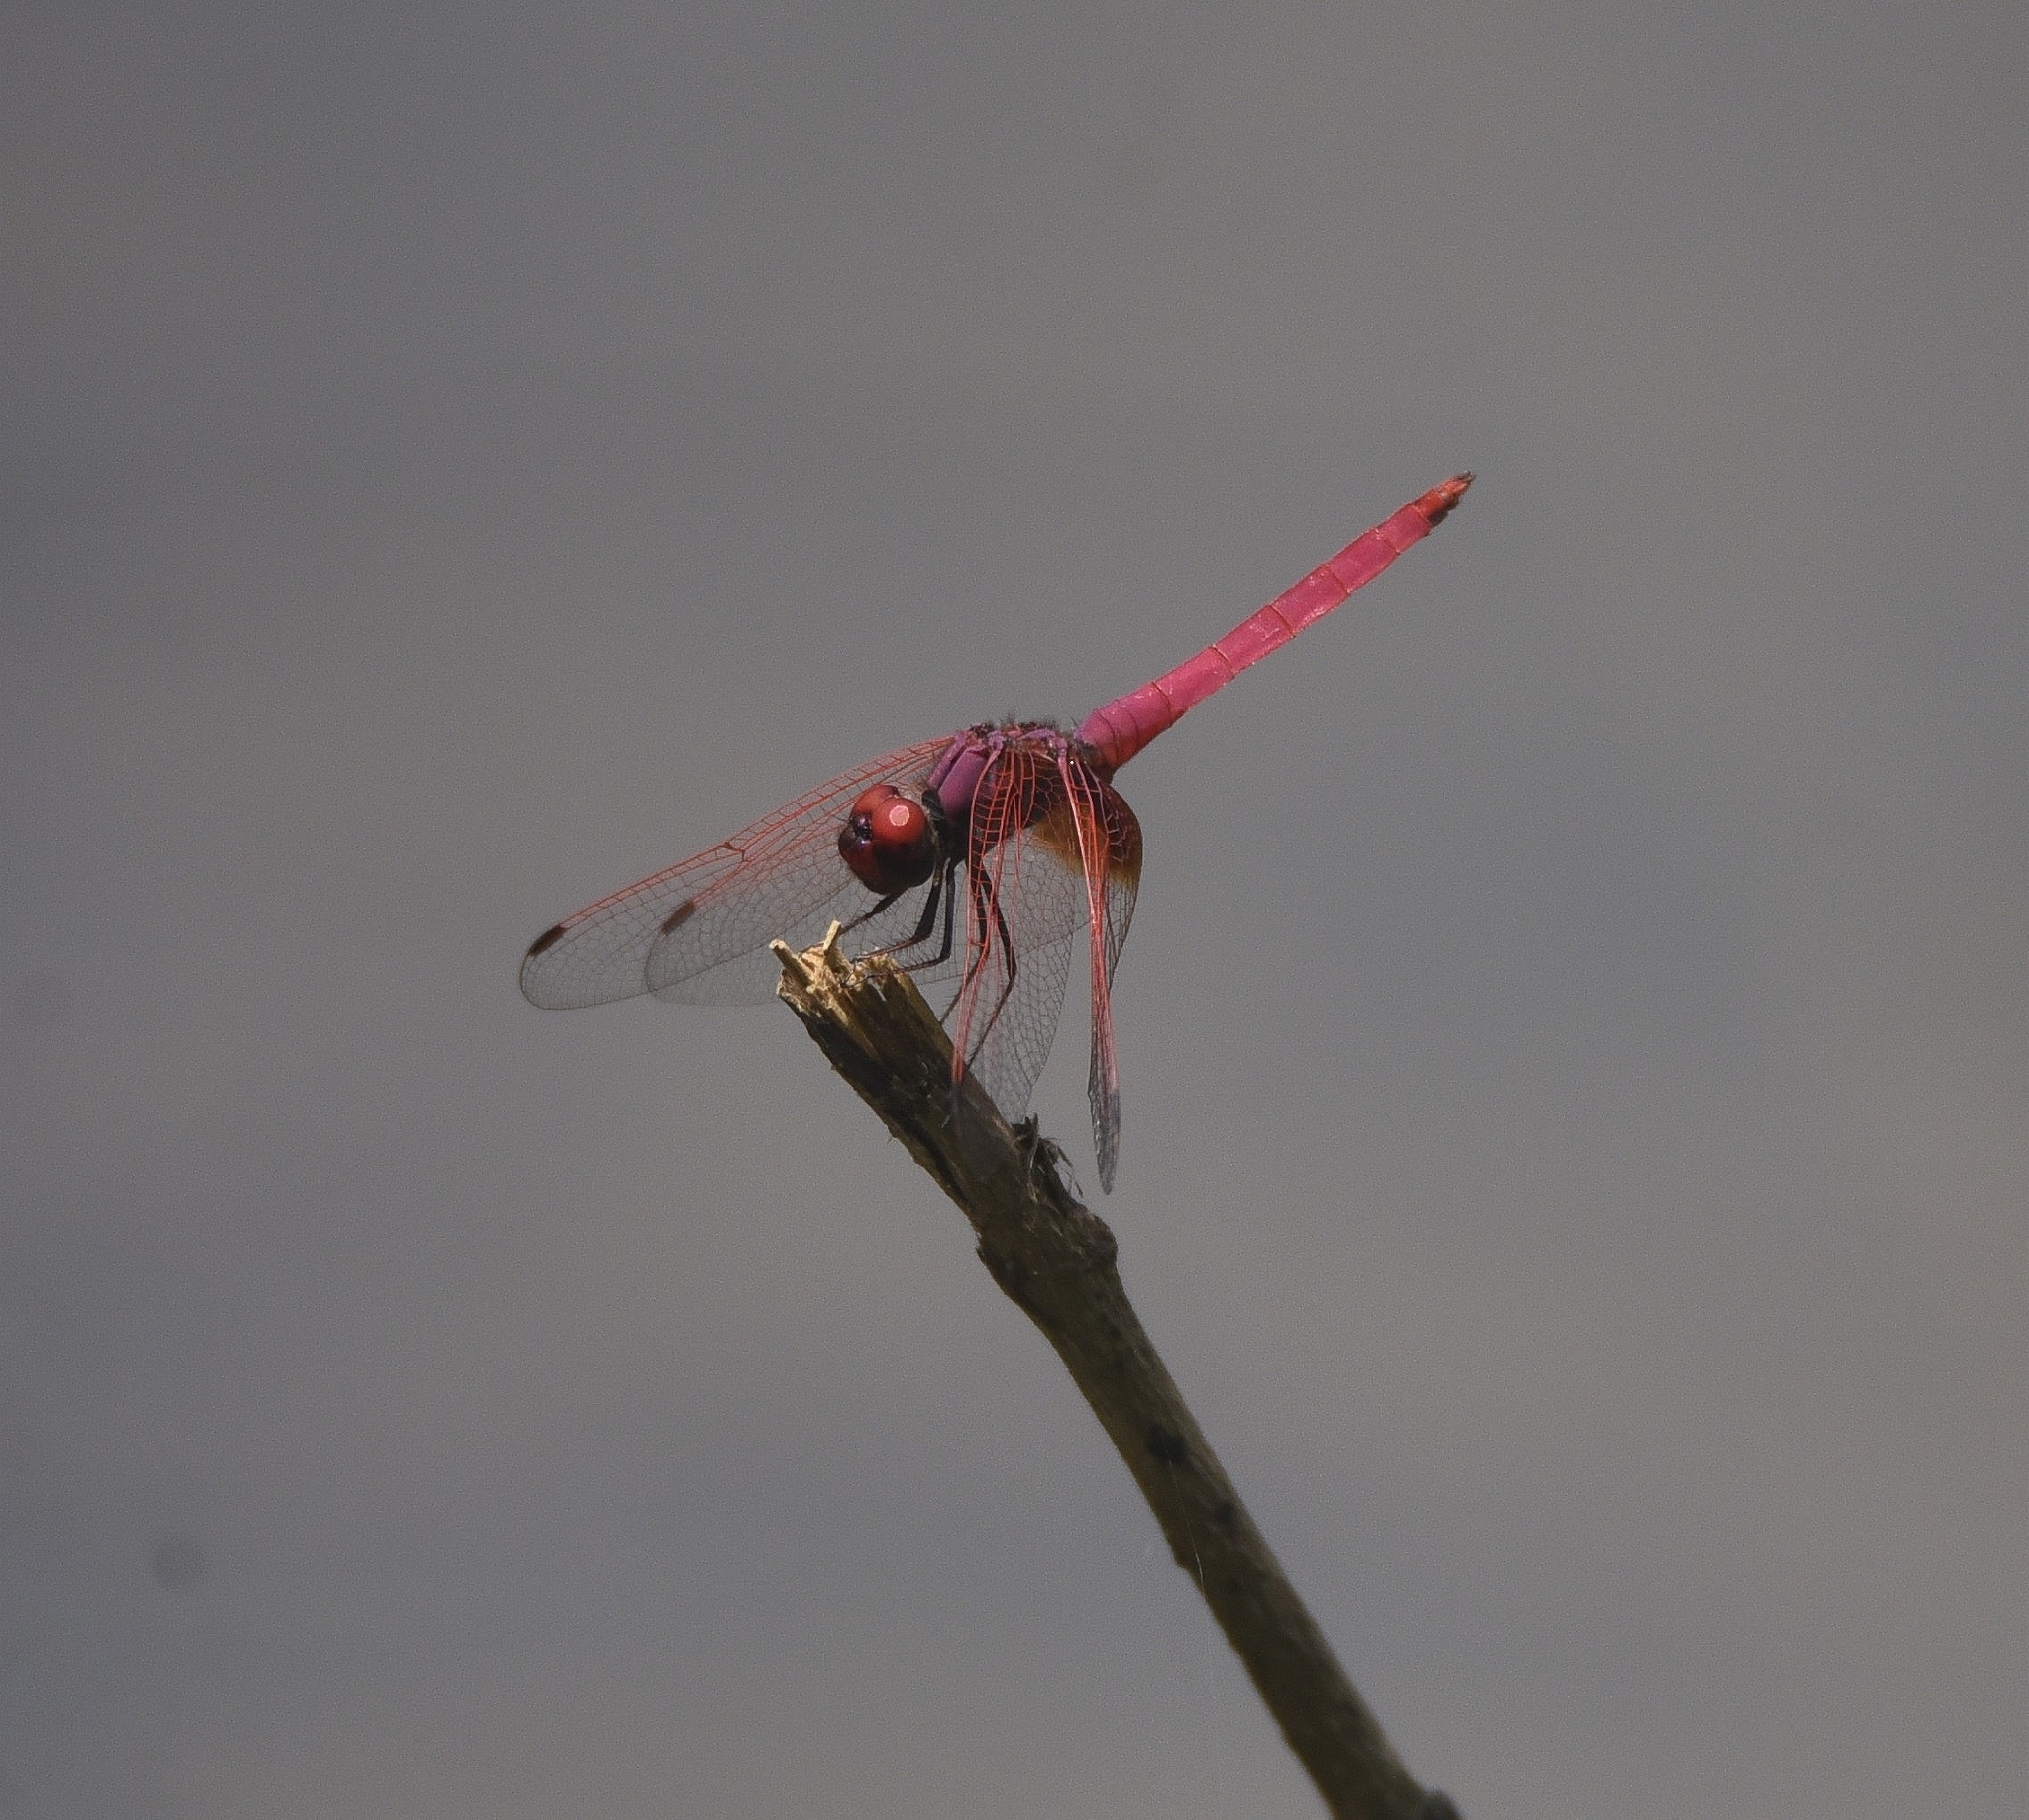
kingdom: Animalia
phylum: Arthropoda
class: Insecta
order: Odonata
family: Libellulidae
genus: Trithemis
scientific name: Trithemis aurora
